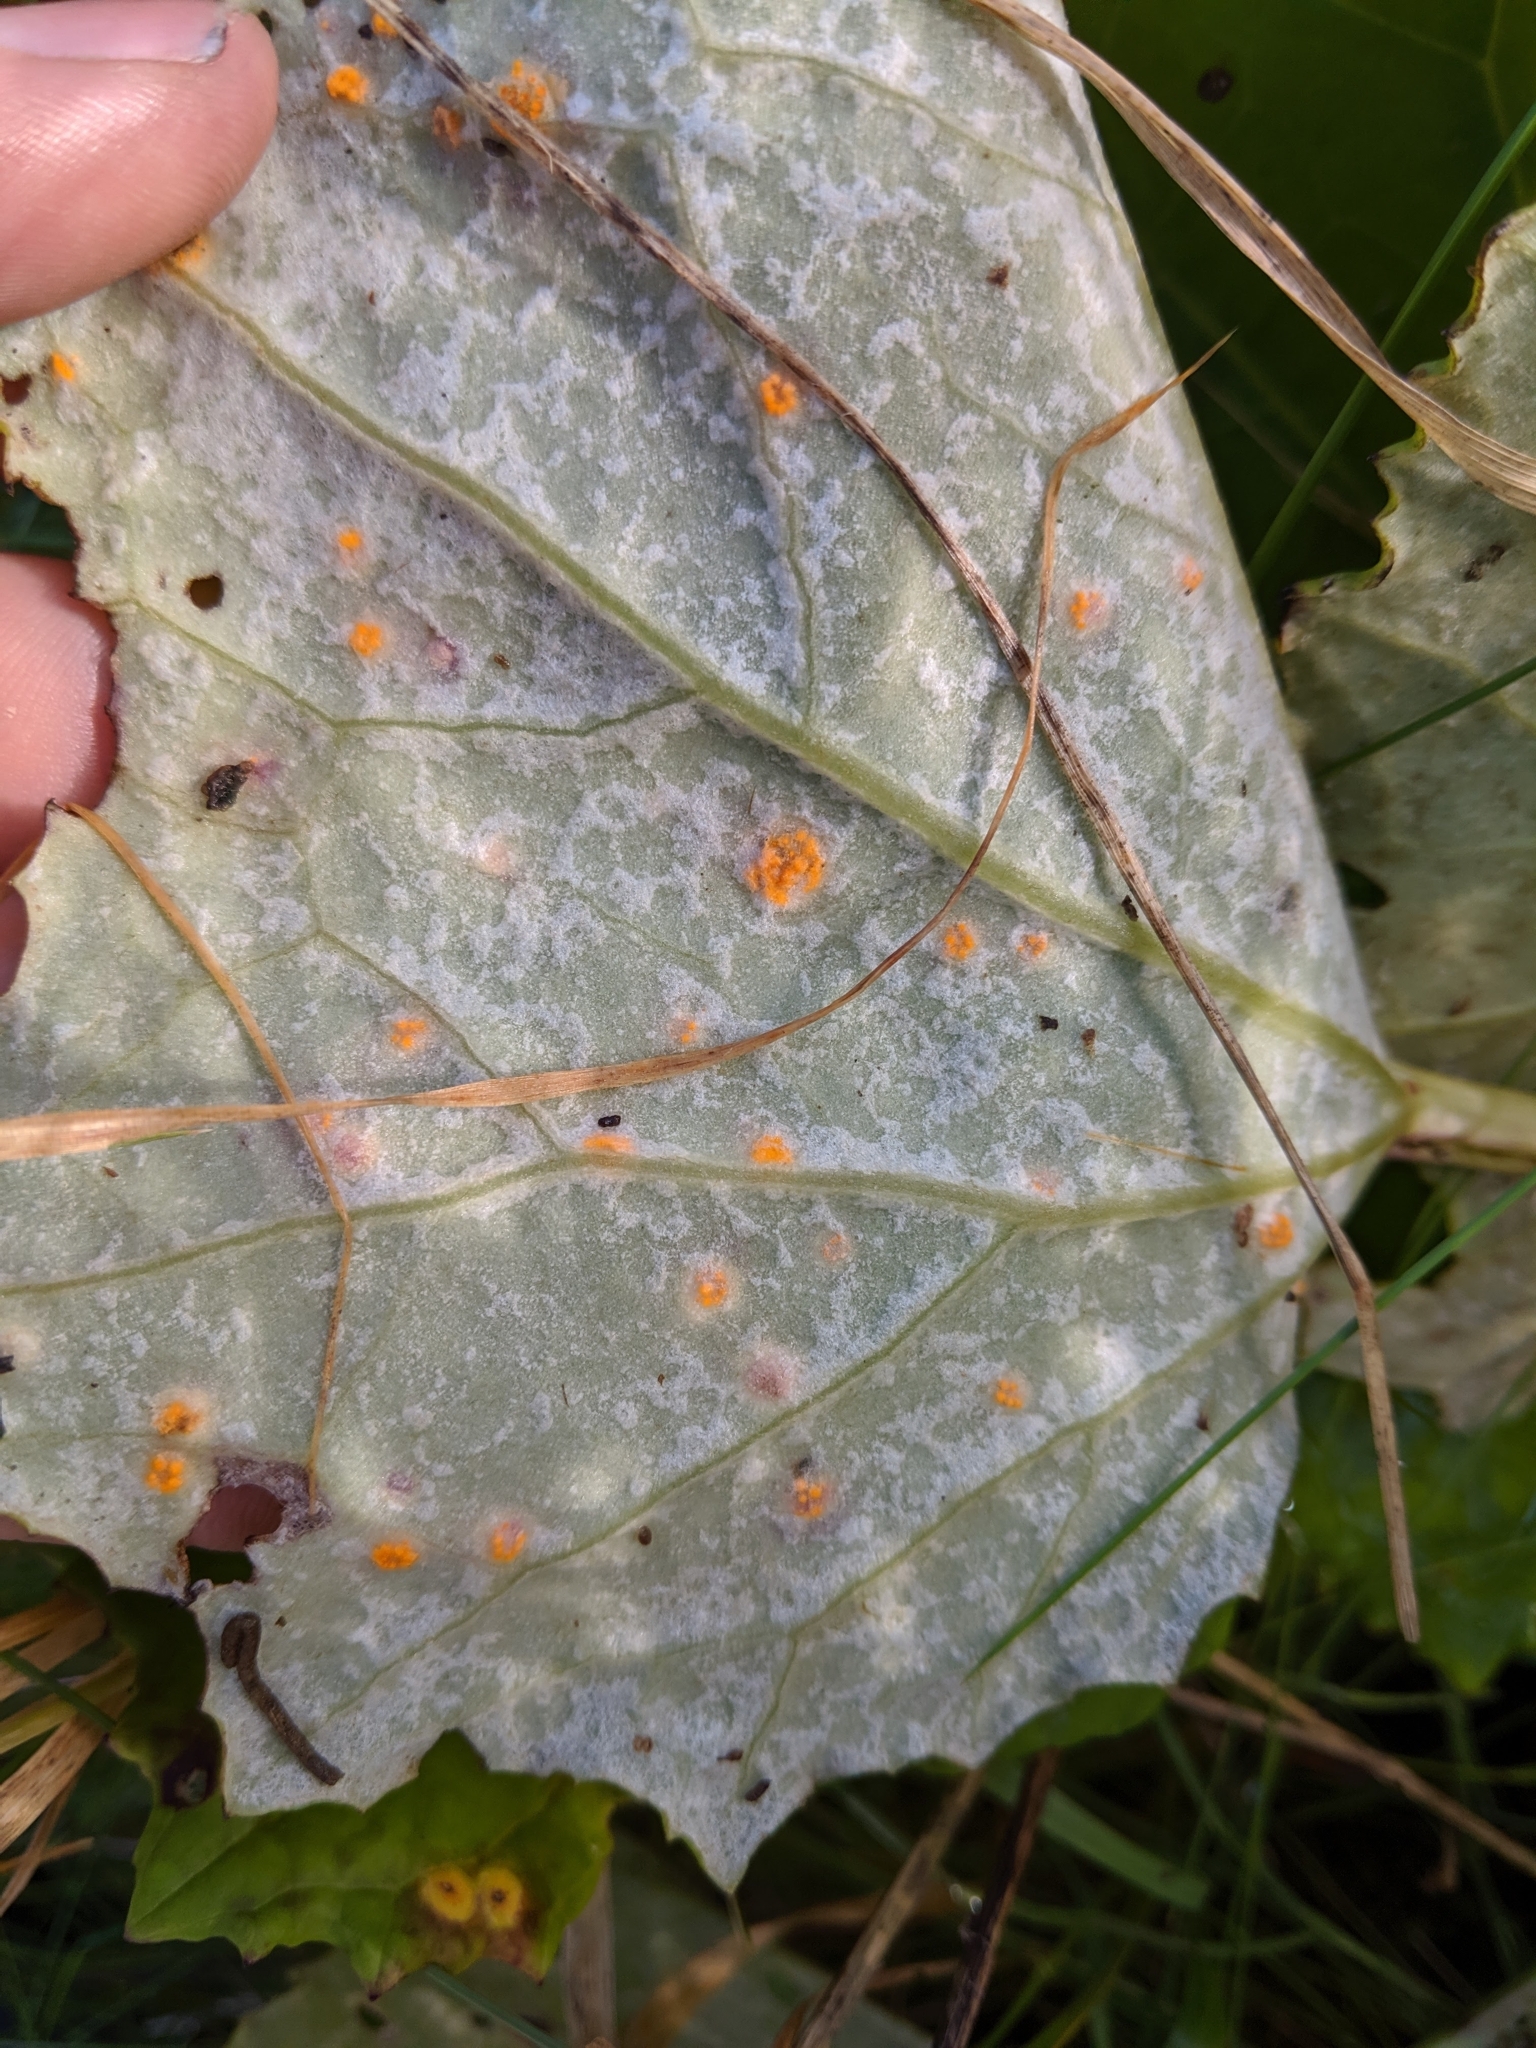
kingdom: Fungi
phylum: Basidiomycota
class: Pucciniomycetes
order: Pucciniales
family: Coleosporiaceae
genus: Coleosporium
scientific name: Coleosporium tussilaginis
